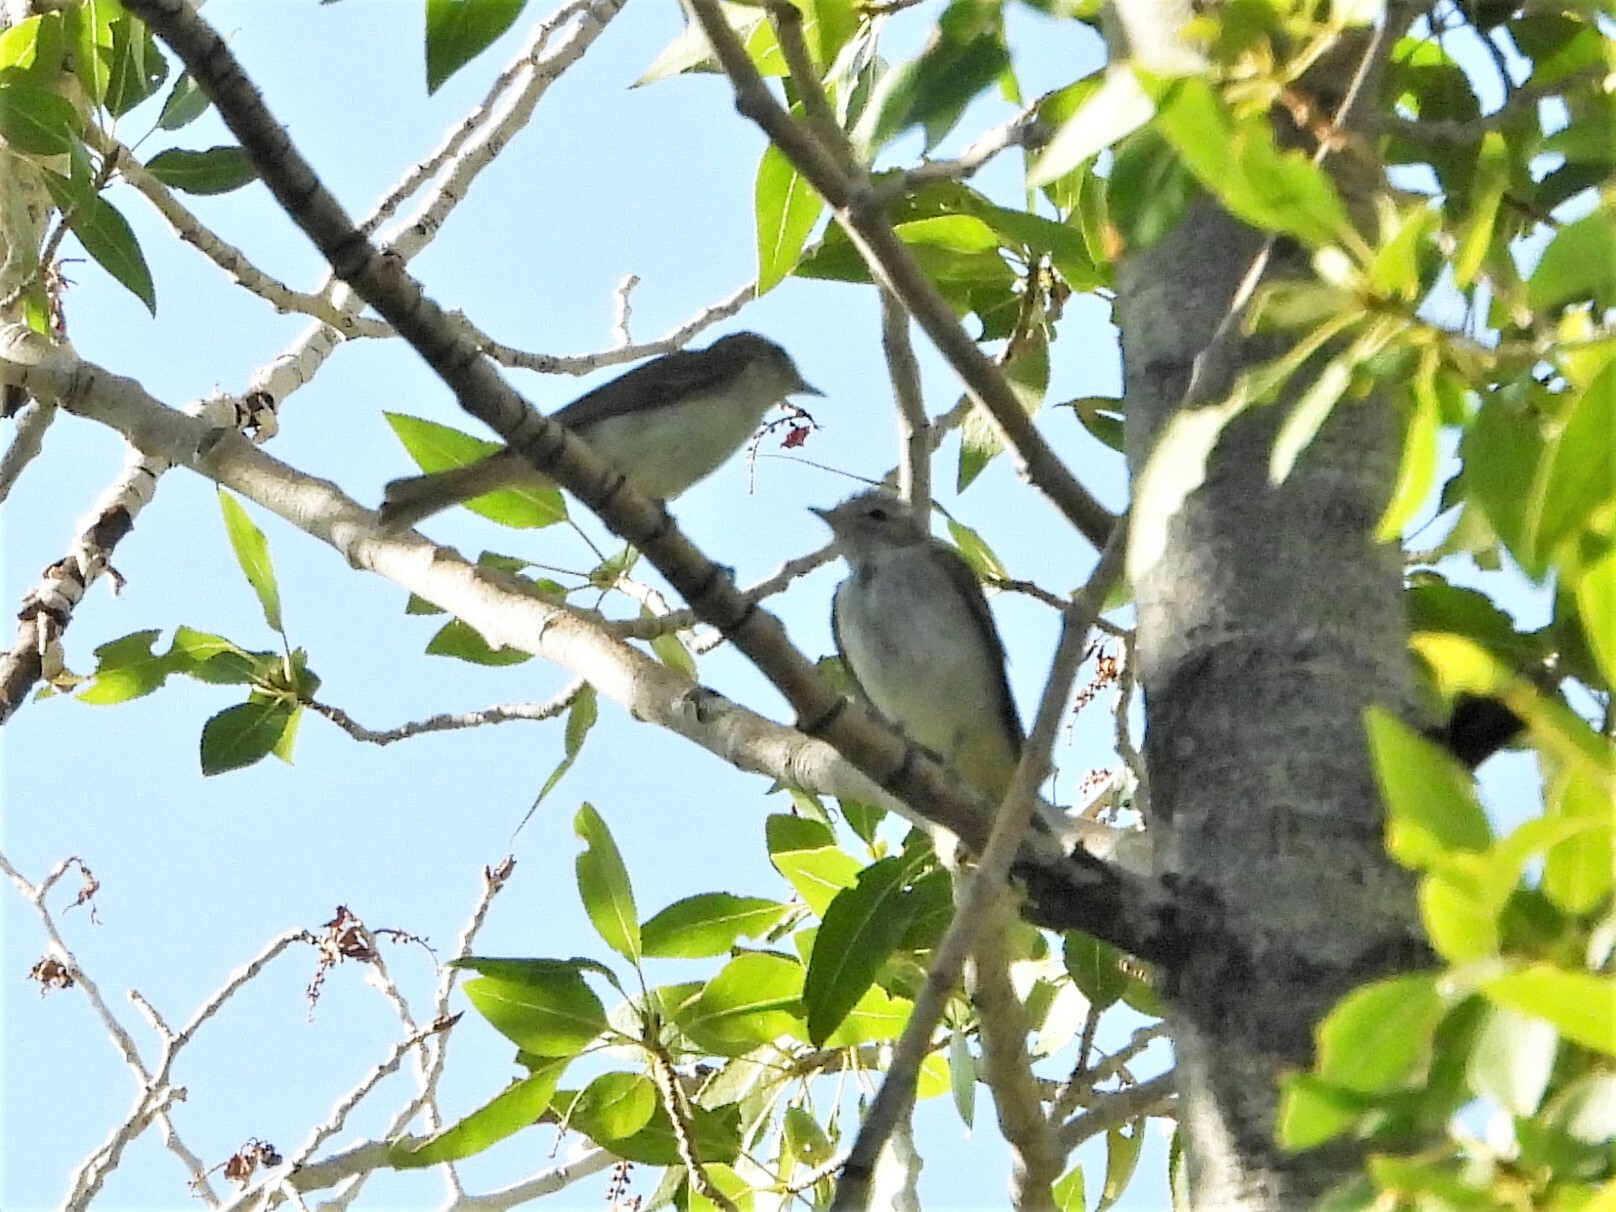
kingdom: Animalia
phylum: Chordata
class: Aves
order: Passeriformes
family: Vireonidae
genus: Vireo
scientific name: Vireo gilvus
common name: Warbling vireo
